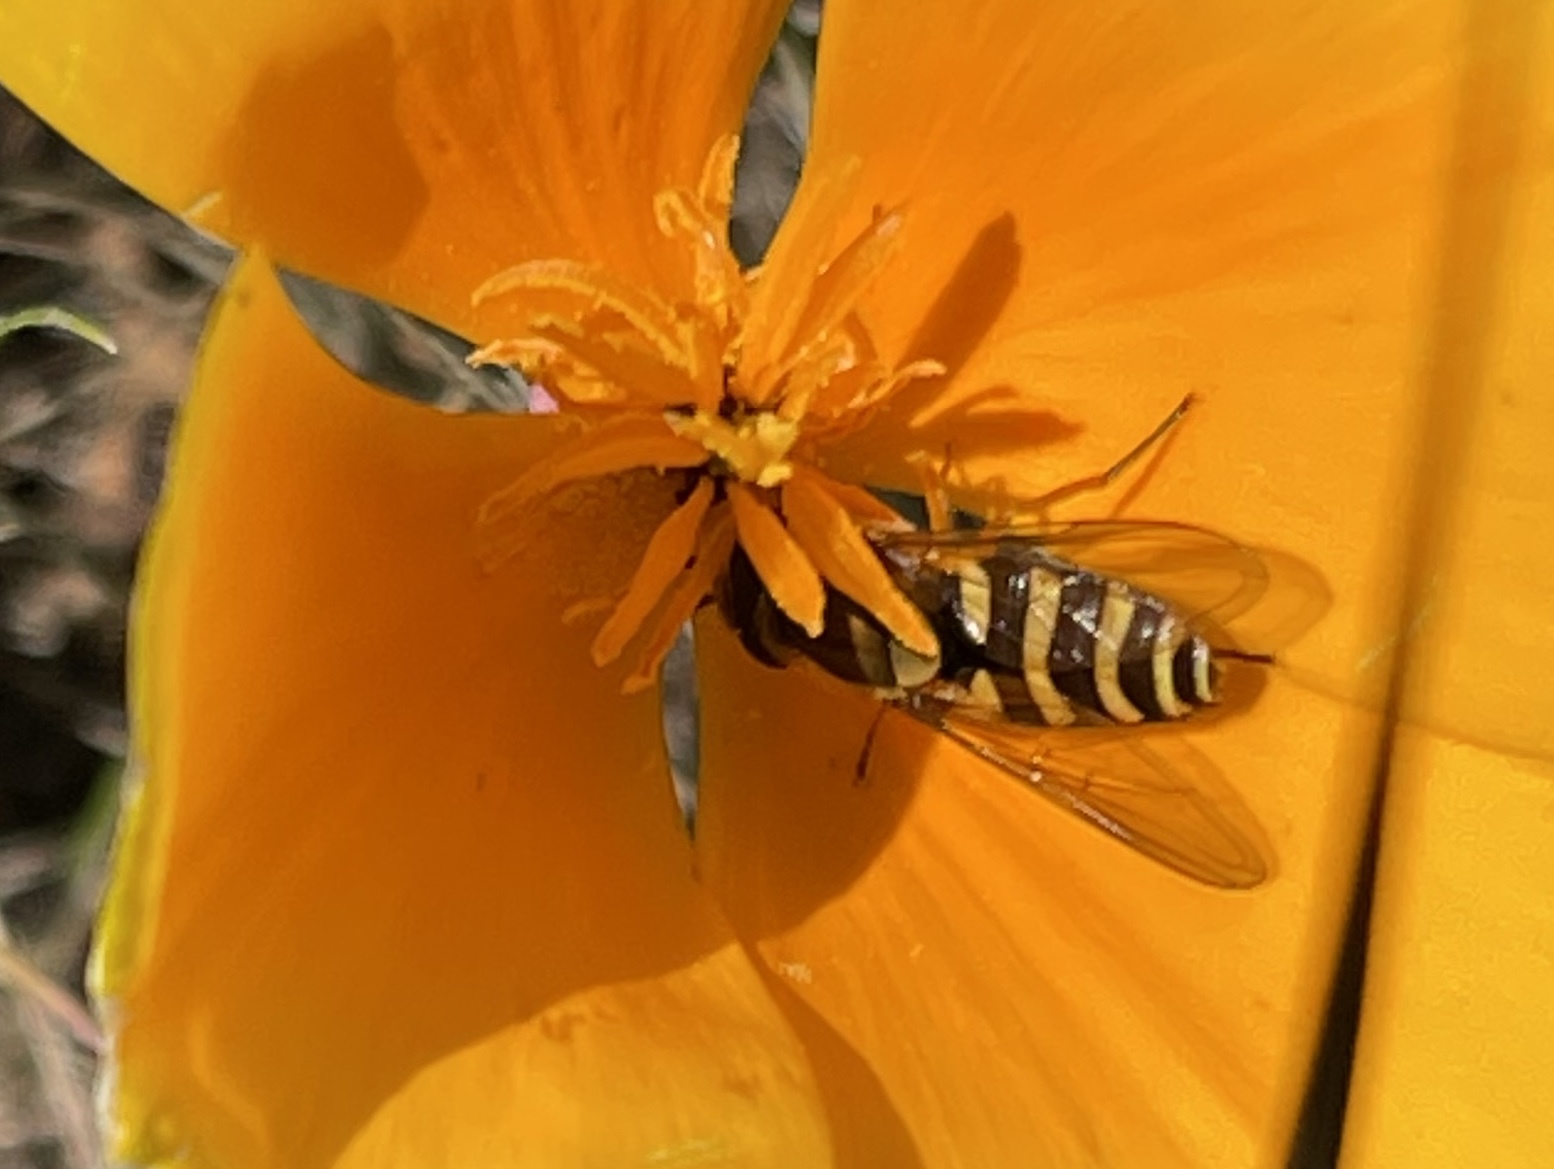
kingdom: Animalia
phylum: Arthropoda
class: Insecta
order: Diptera
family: Syrphidae
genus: Syrphus
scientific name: Syrphus opinator
